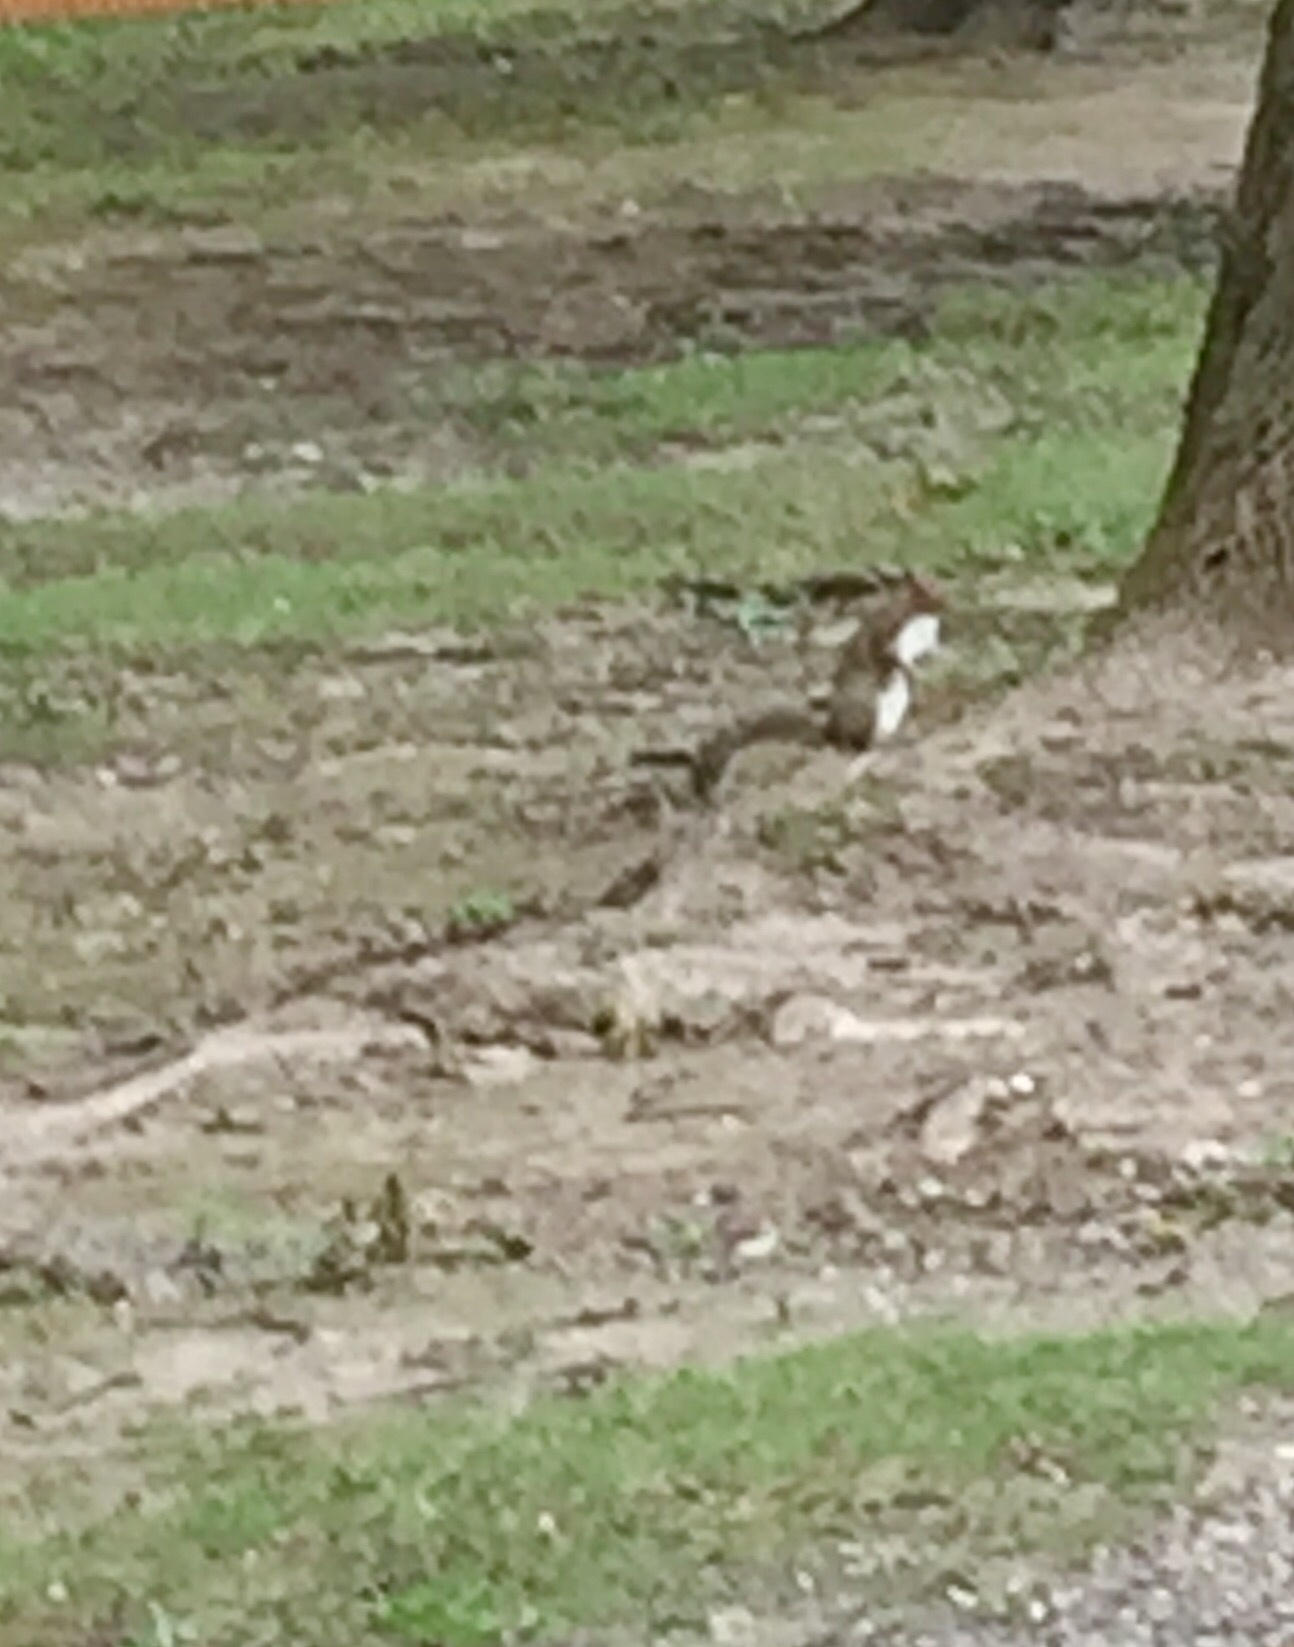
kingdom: Animalia
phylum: Chordata
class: Mammalia
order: Rodentia
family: Sciuridae
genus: Sciurus
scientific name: Sciurus carolinensis
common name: Eastern gray squirrel
